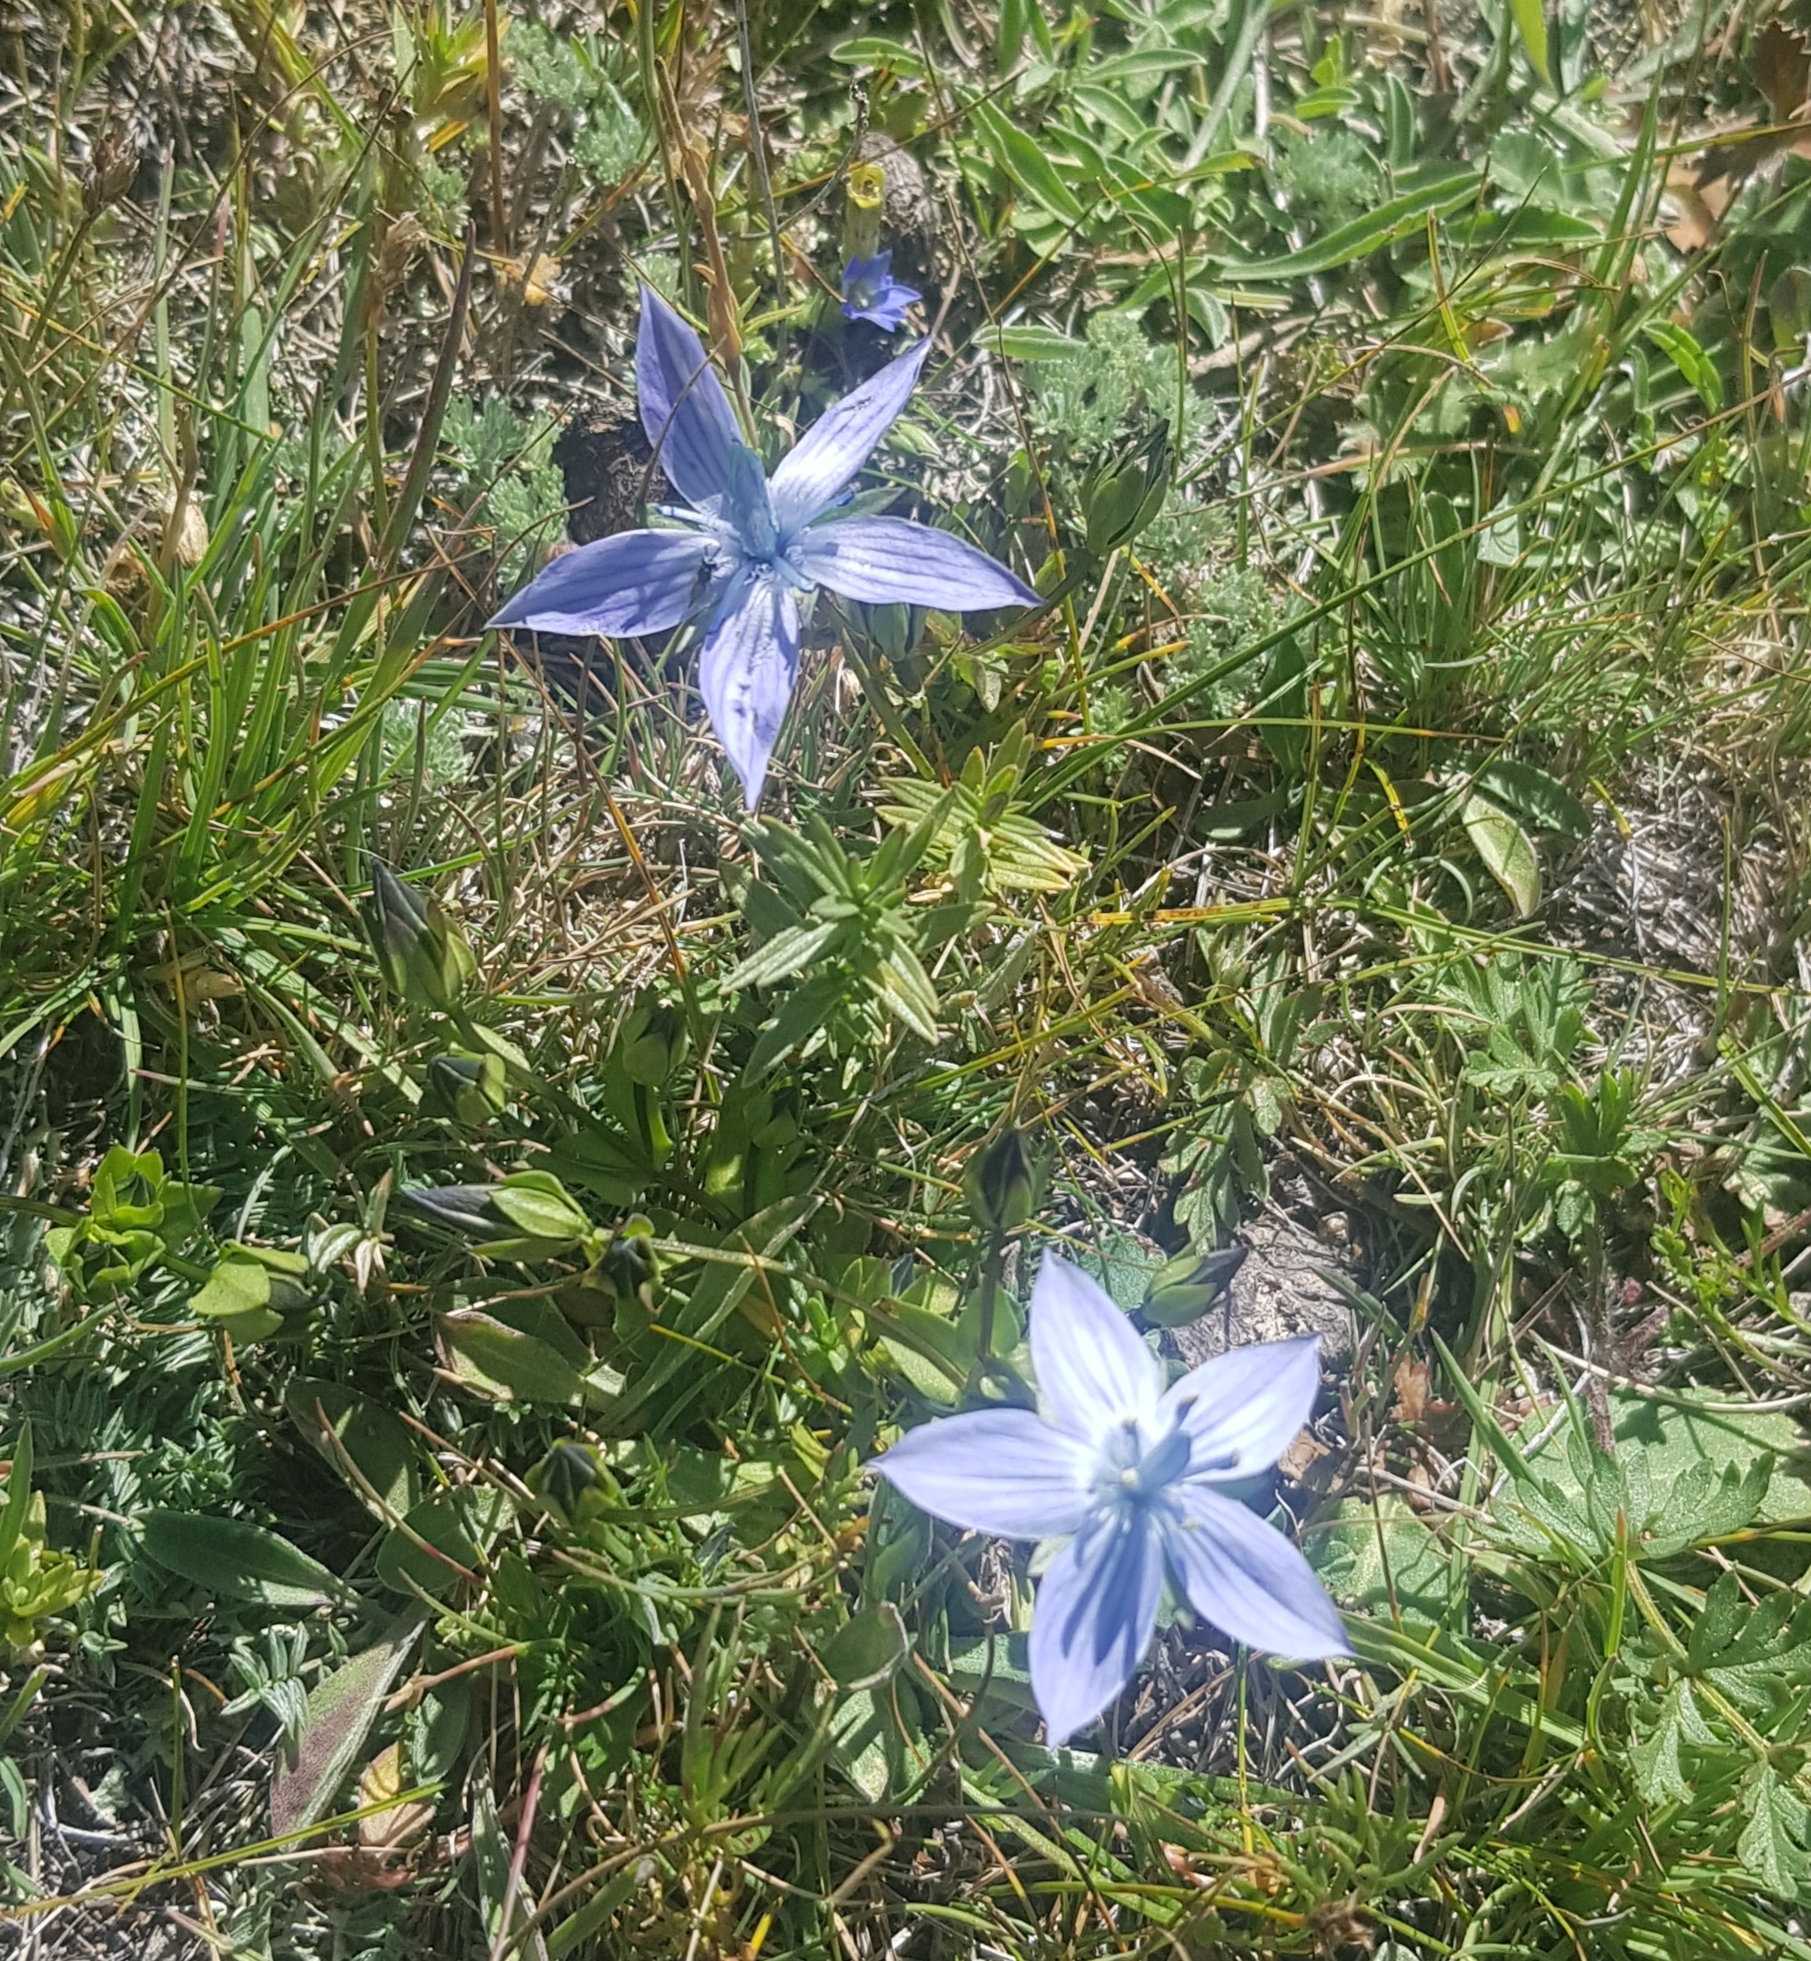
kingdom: Plantae
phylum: Tracheophyta
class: Magnoliopsida
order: Gentianales
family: Gentianaceae
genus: Lomatogonium
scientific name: Lomatogonium carinthiacum
